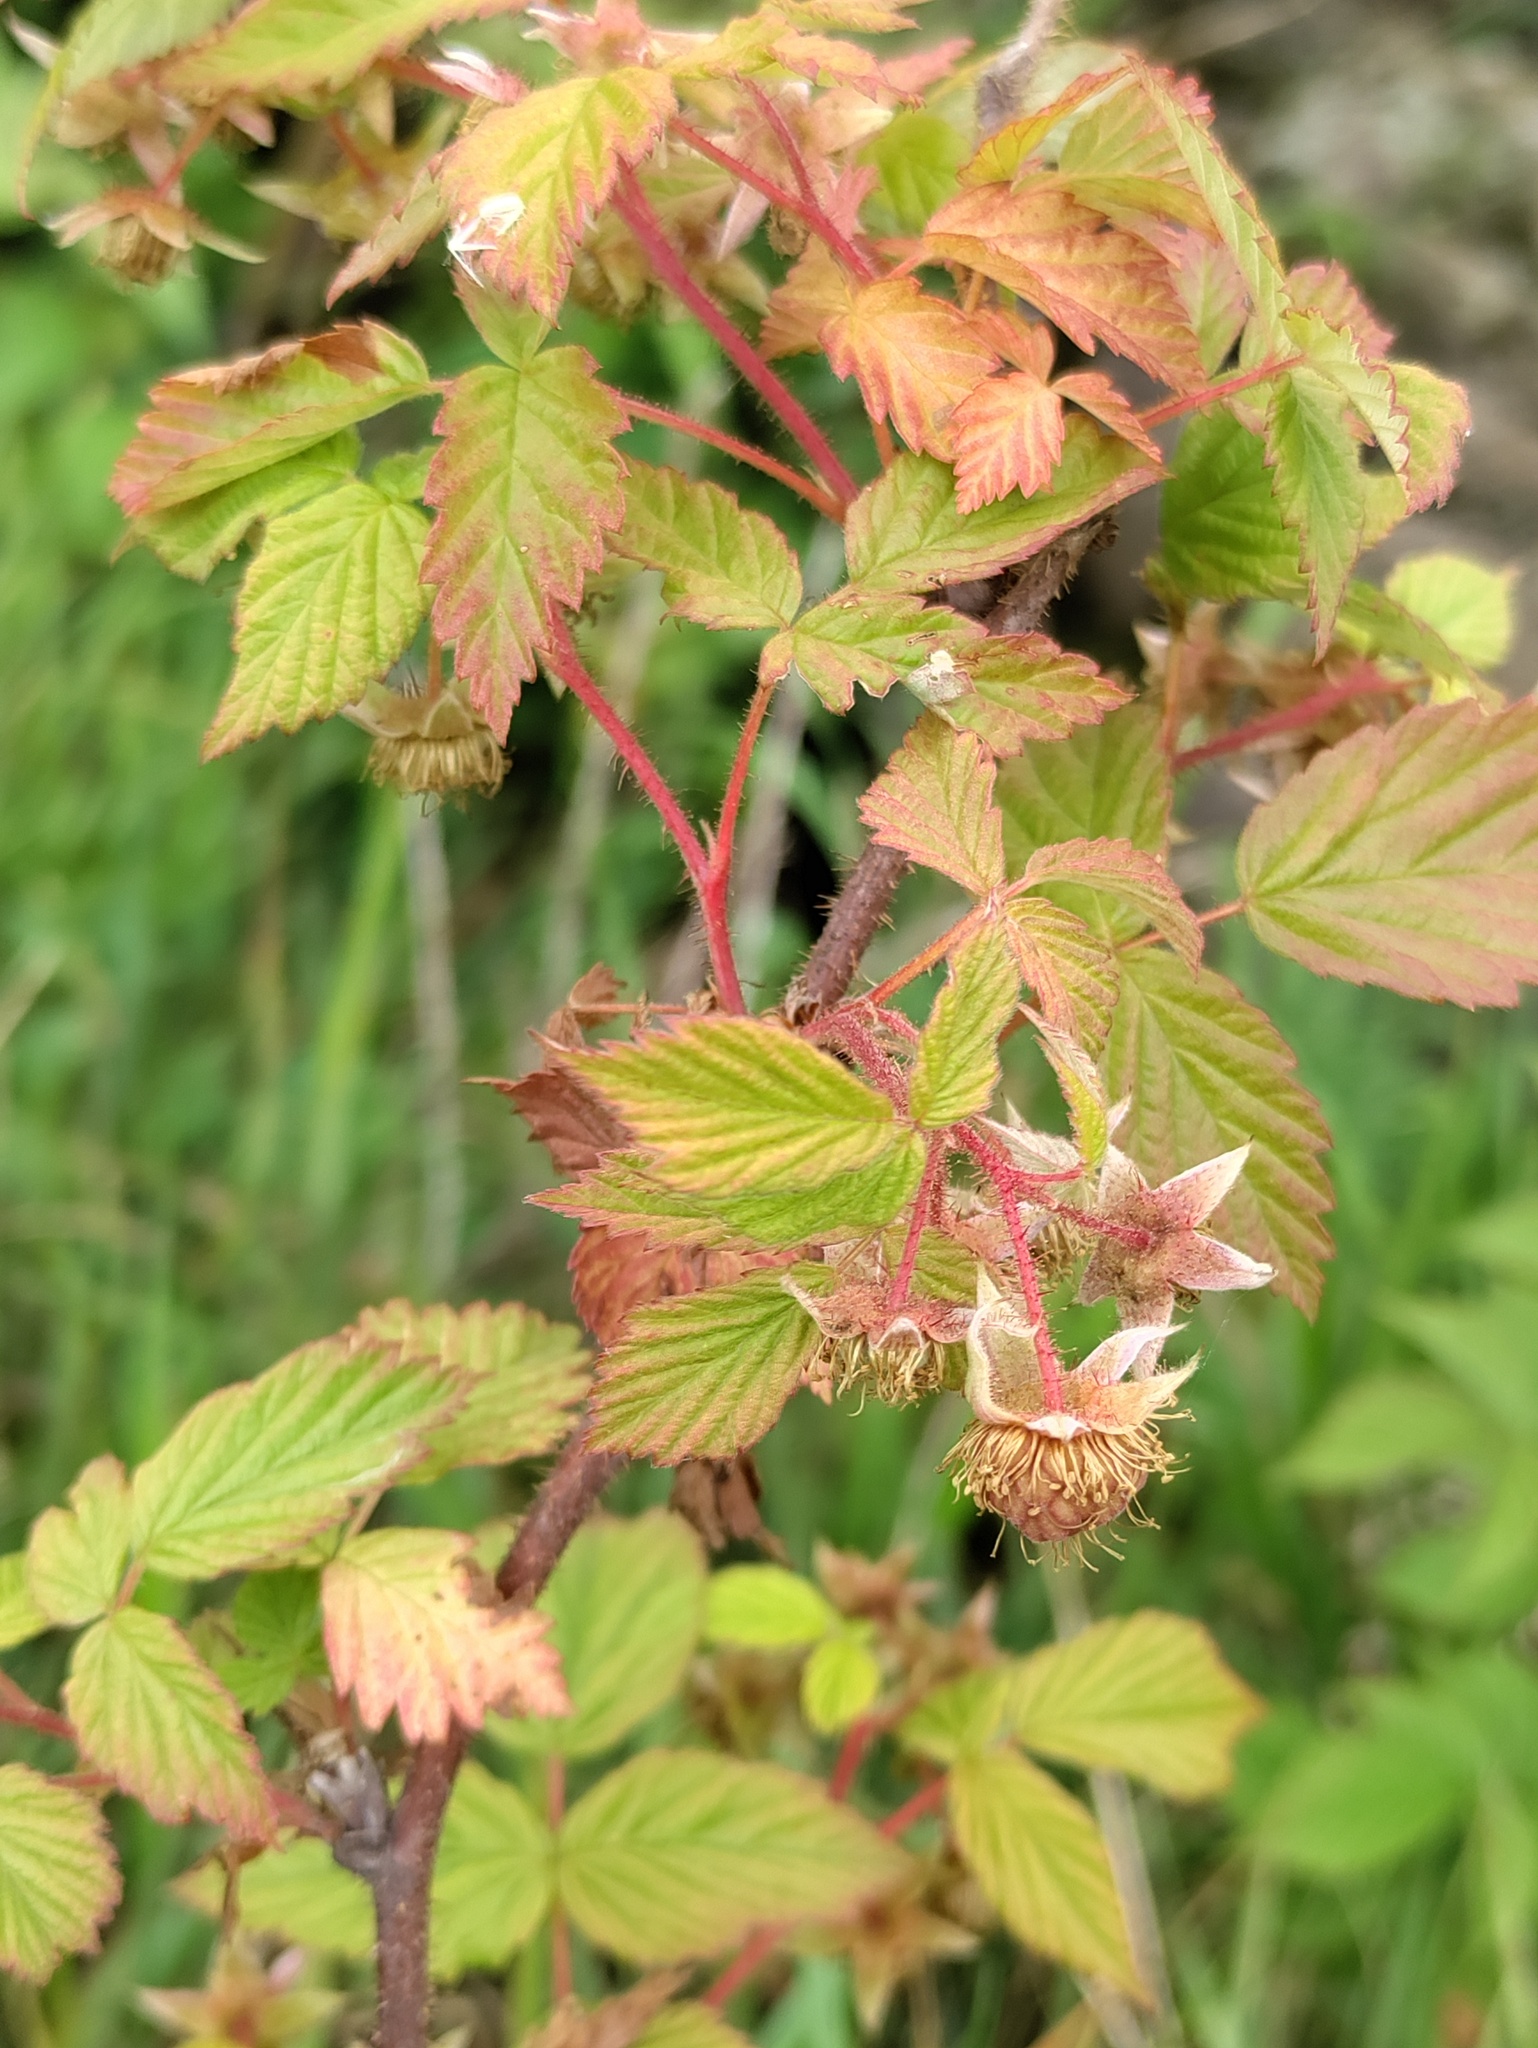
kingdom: Plantae
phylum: Tracheophyta
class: Magnoliopsida
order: Rosales
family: Rosaceae
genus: Rubus
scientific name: Rubus idaeus
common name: Raspberry
